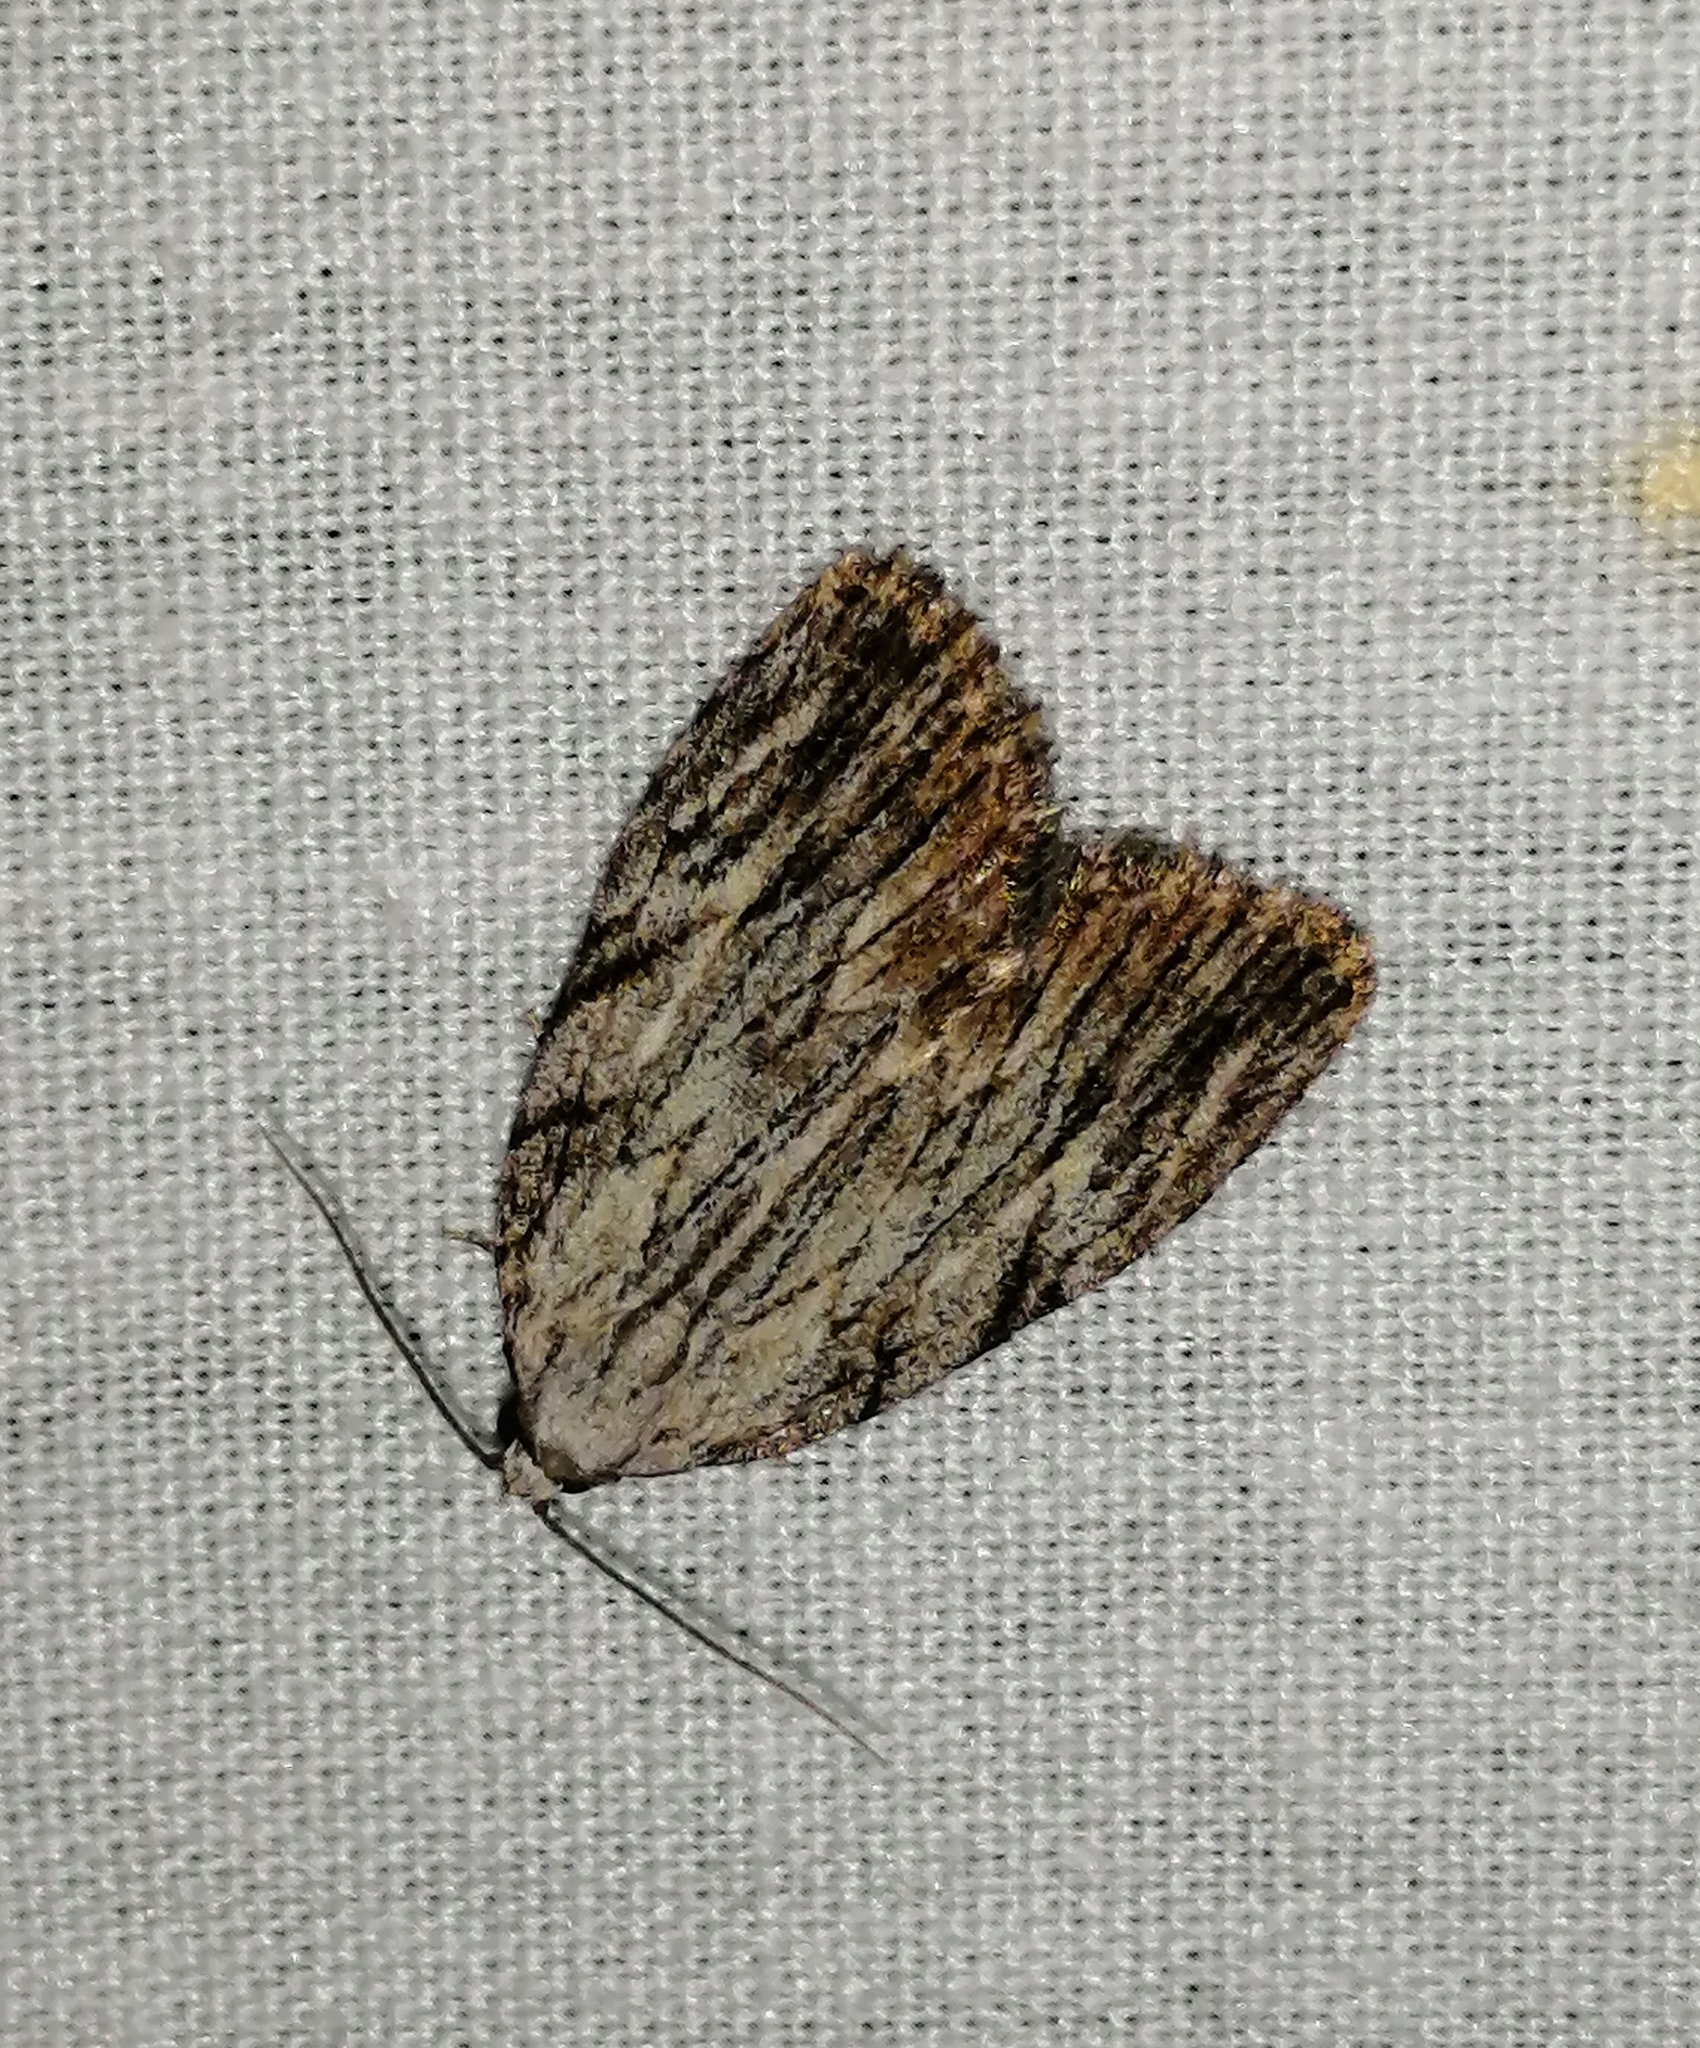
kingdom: Animalia
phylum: Arthropoda
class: Insecta
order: Lepidoptera
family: Noctuidae
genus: Balsa
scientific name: Balsa tristrigella
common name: Three-lined balsa moth
